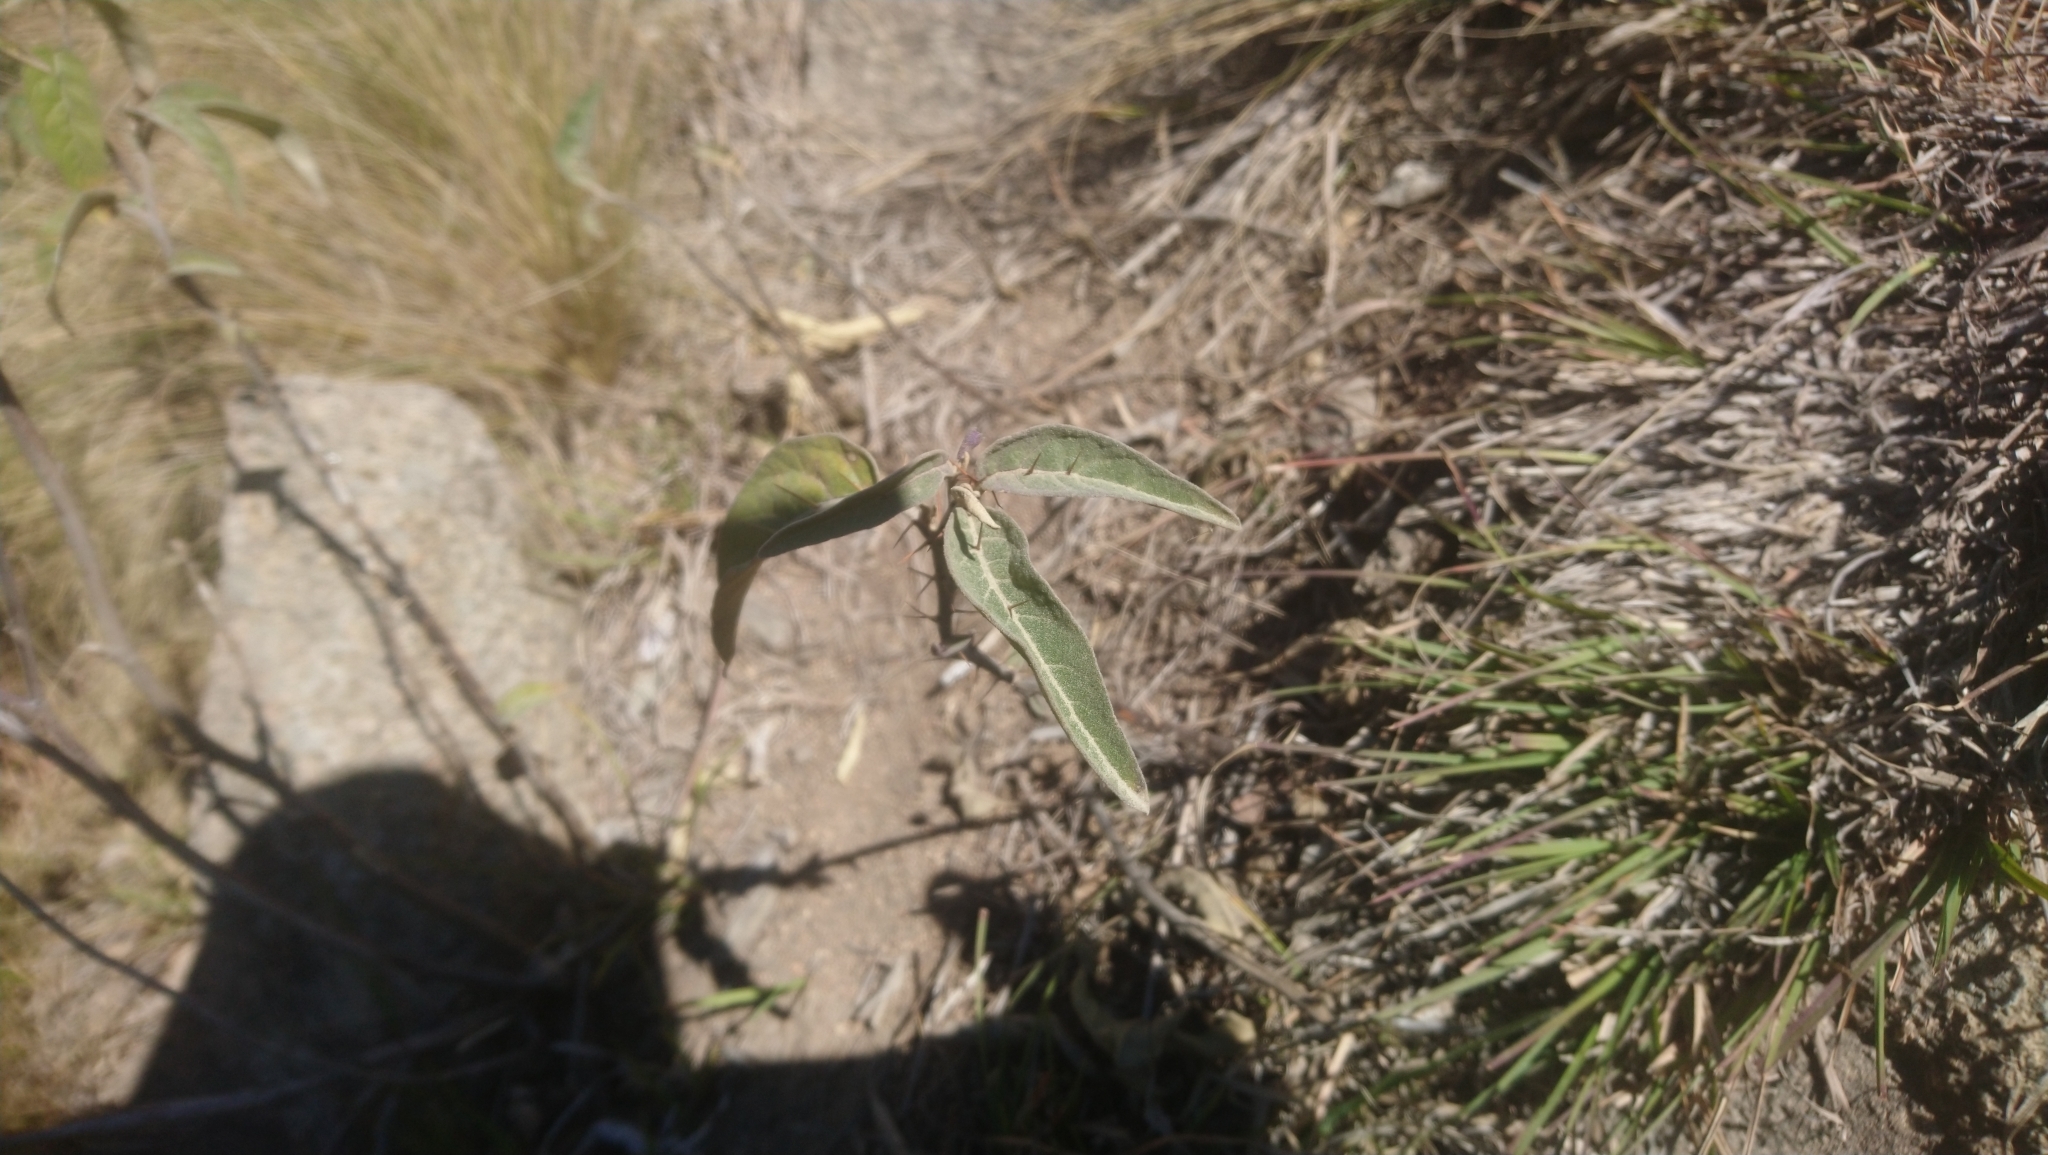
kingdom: Plantae
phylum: Tracheophyta
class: Magnoliopsida
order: Solanales
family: Solanaceae
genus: Solanum
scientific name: Solanum celatum
